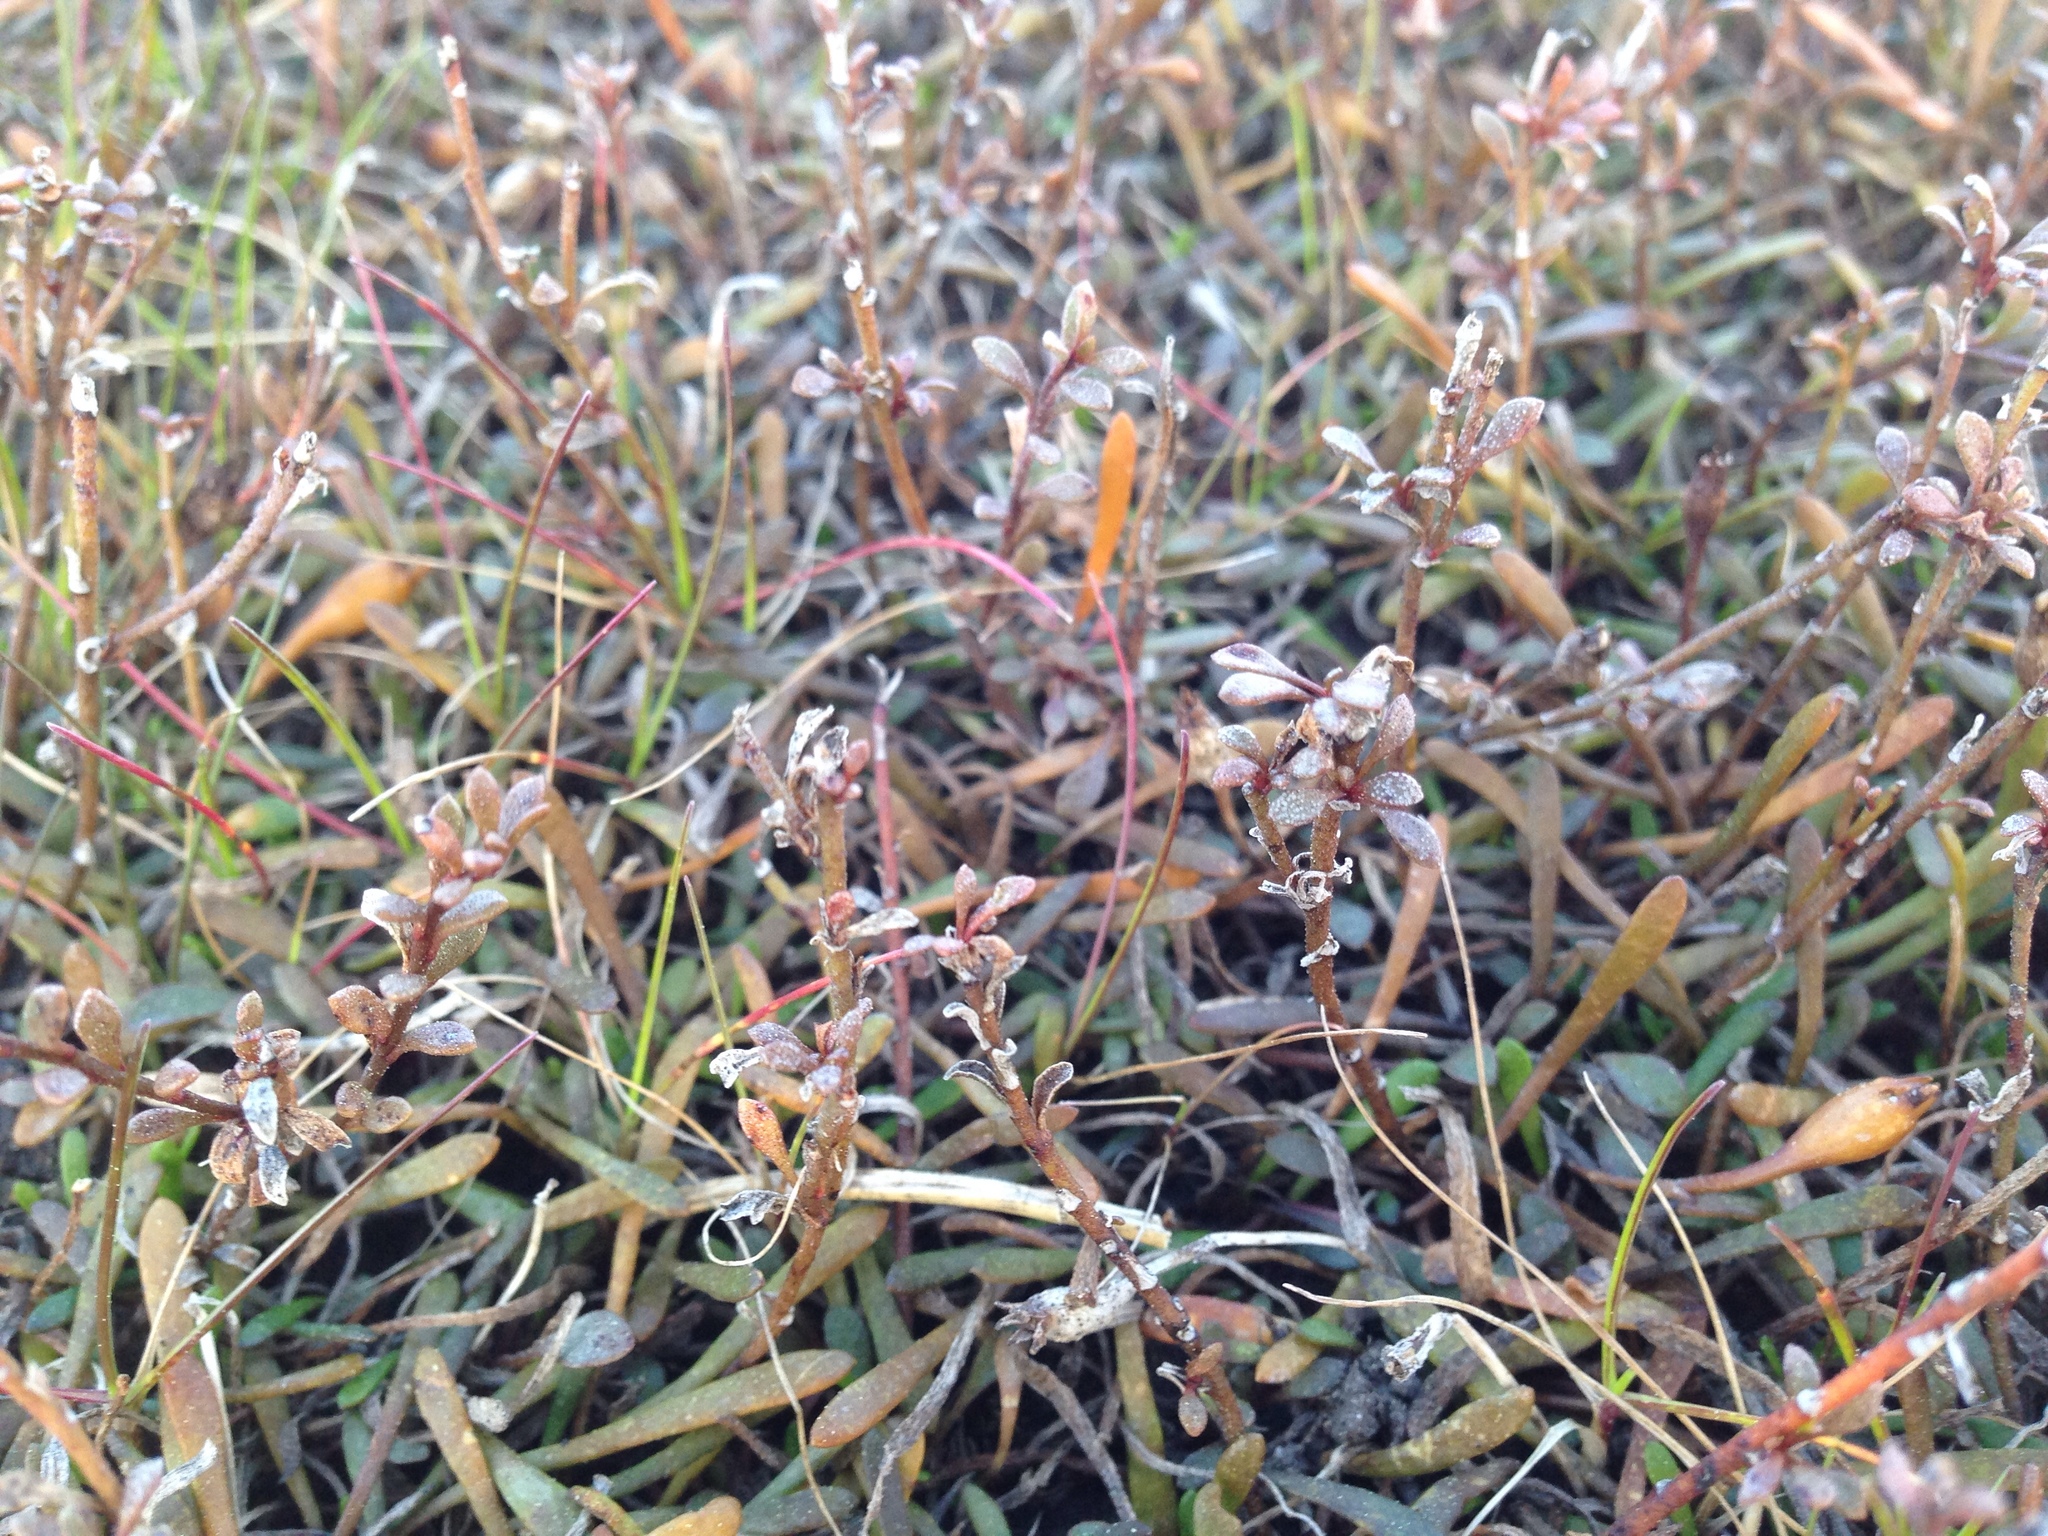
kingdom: Plantae
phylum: Tracheophyta
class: Magnoliopsida
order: Ericales
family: Primulaceae
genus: Samolus
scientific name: Samolus repens
